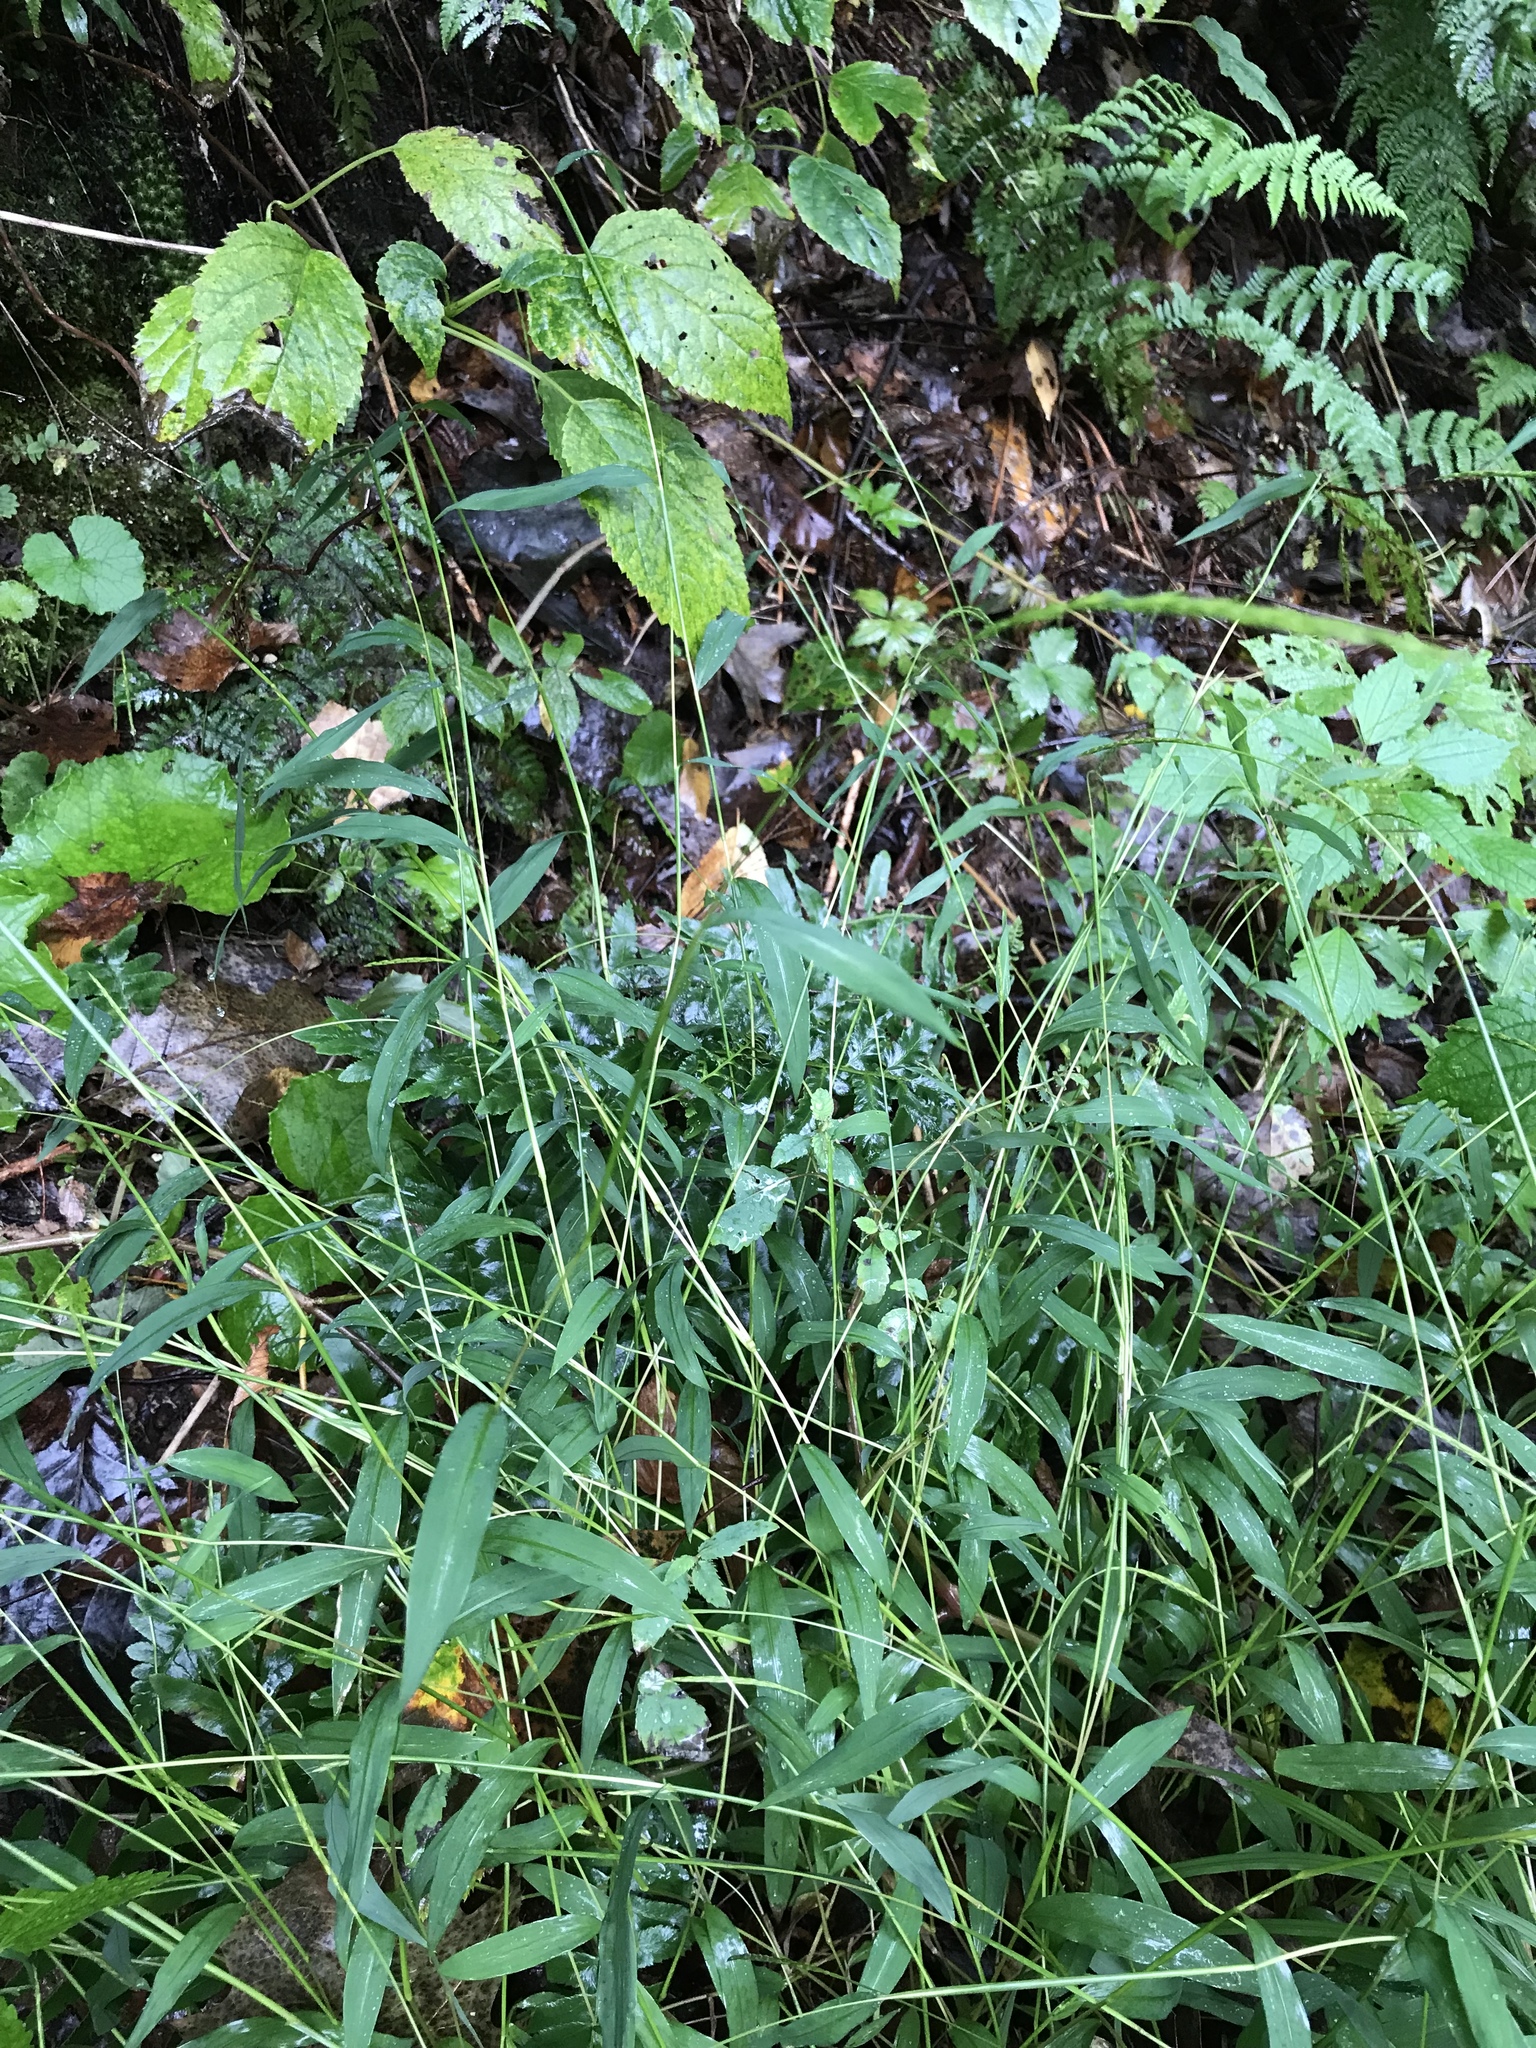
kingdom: Plantae
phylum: Tracheophyta
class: Liliopsida
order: Poales
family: Poaceae
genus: Microstegium
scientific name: Microstegium vimineum
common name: Japanese stiltgrass
